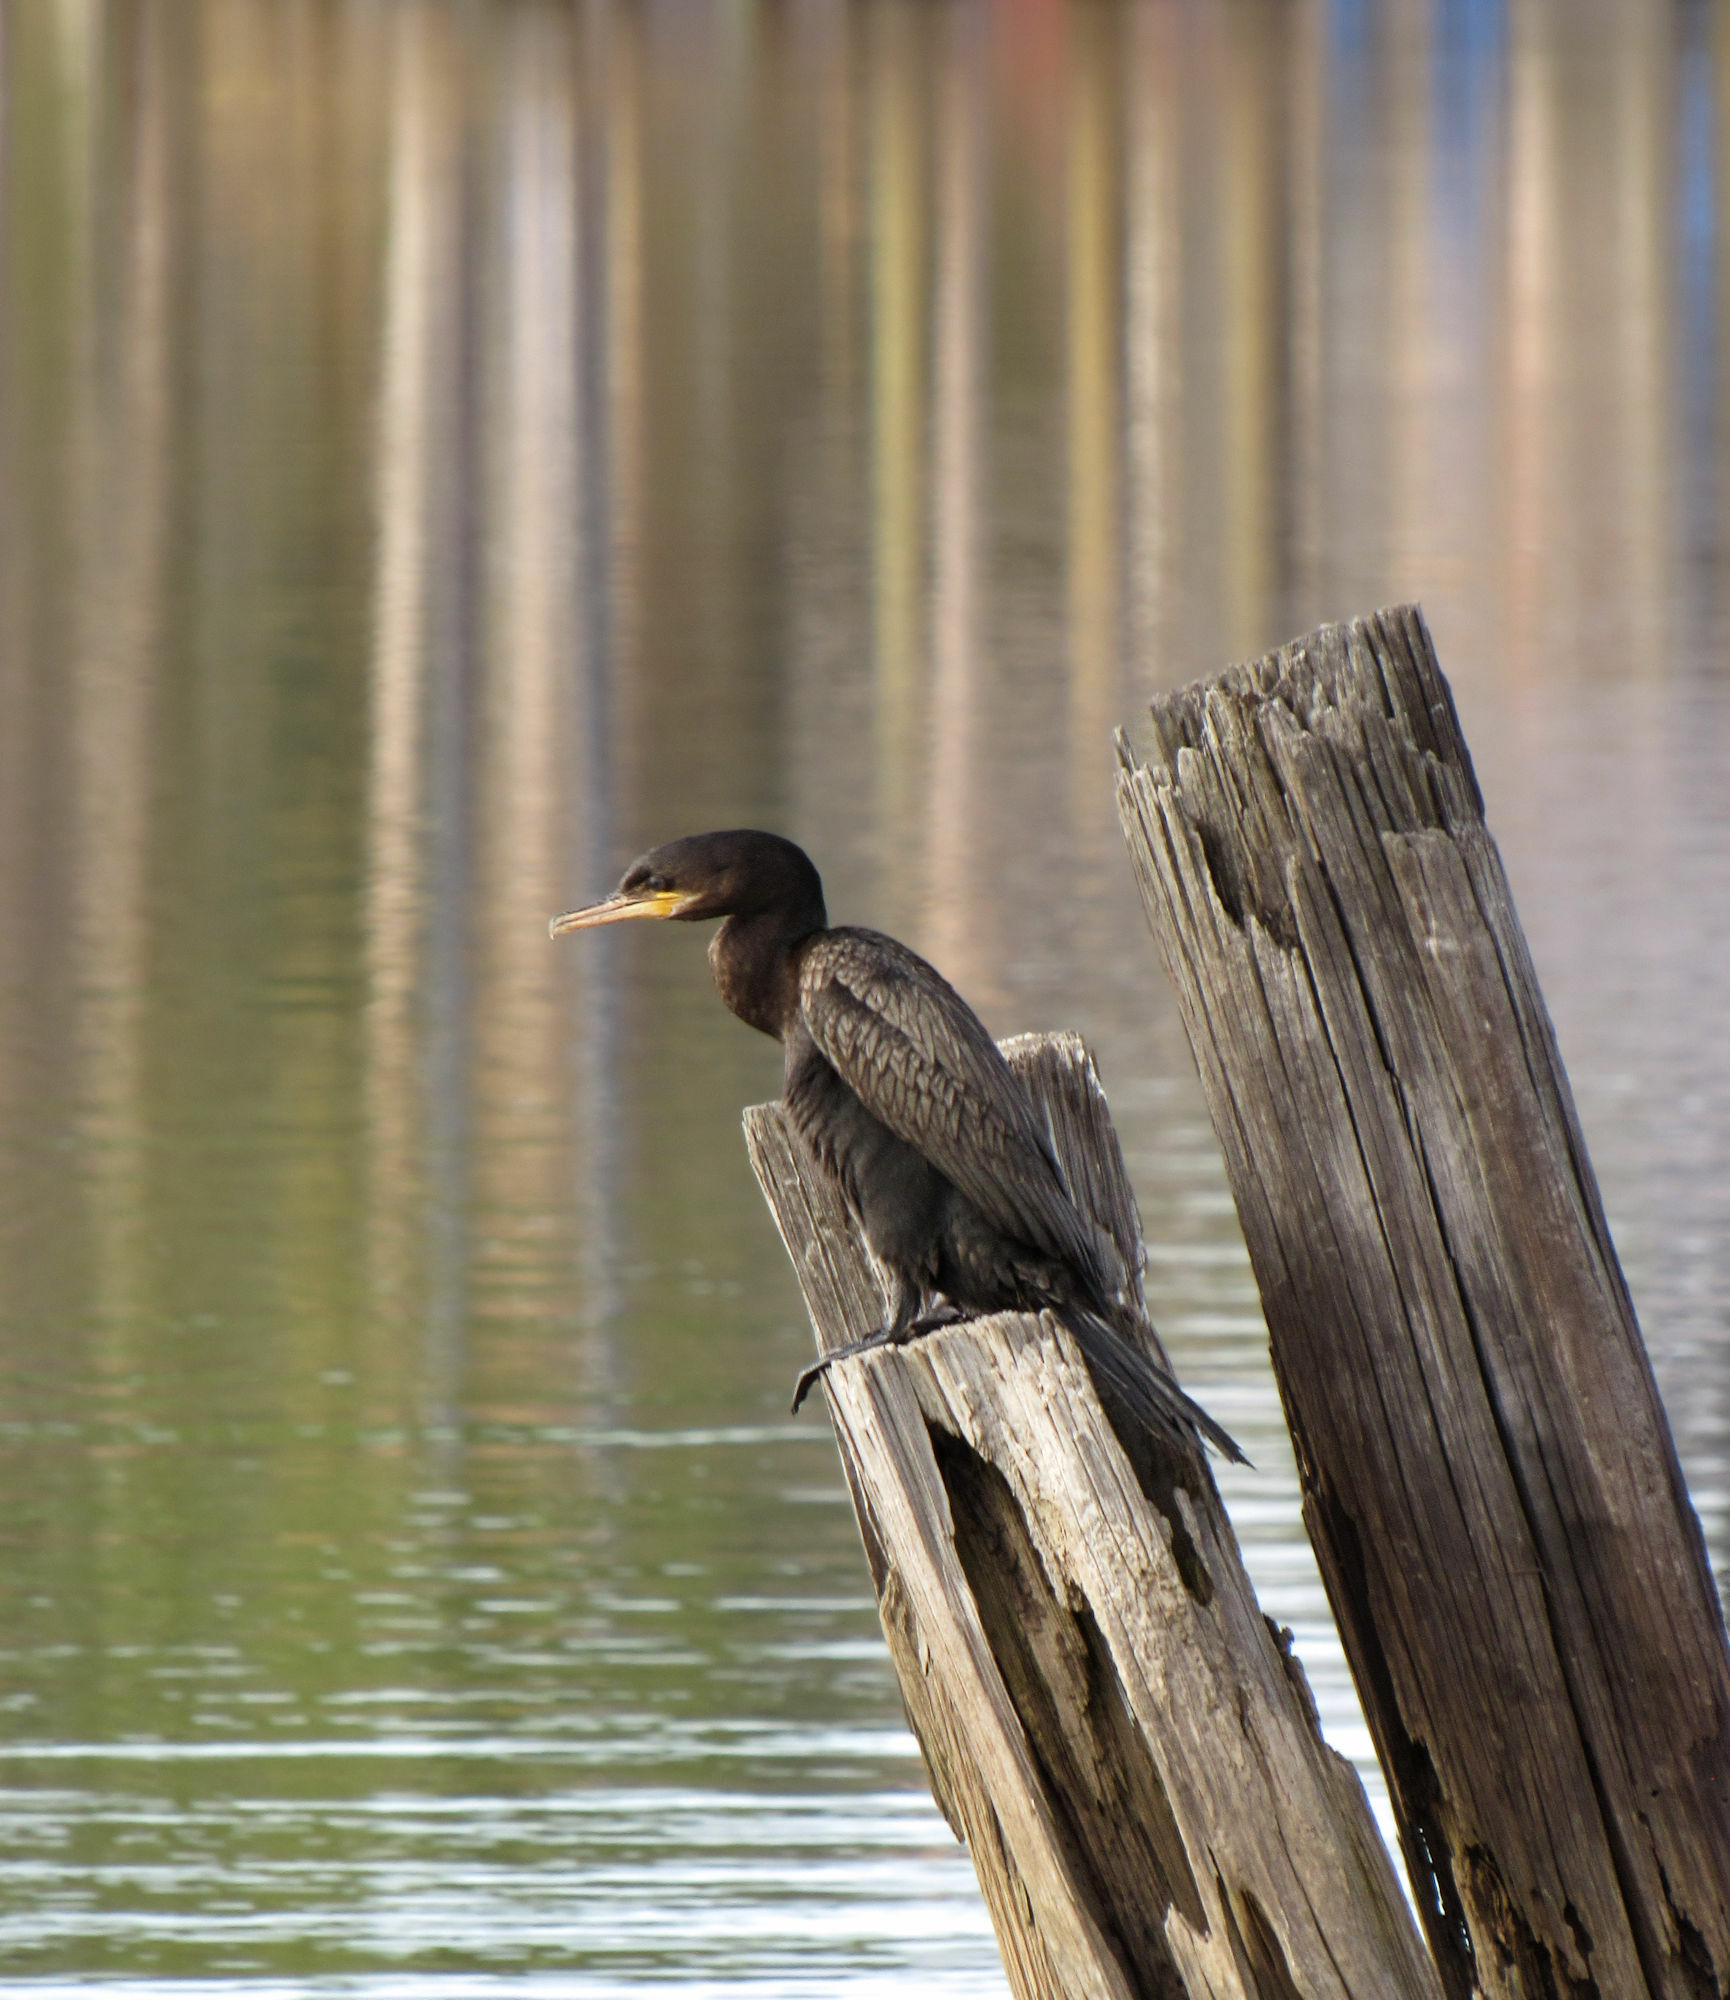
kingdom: Animalia
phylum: Chordata
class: Aves
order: Suliformes
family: Phalacrocoracidae
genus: Phalacrocorax
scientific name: Phalacrocorax brasilianus
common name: Neotropic cormorant
